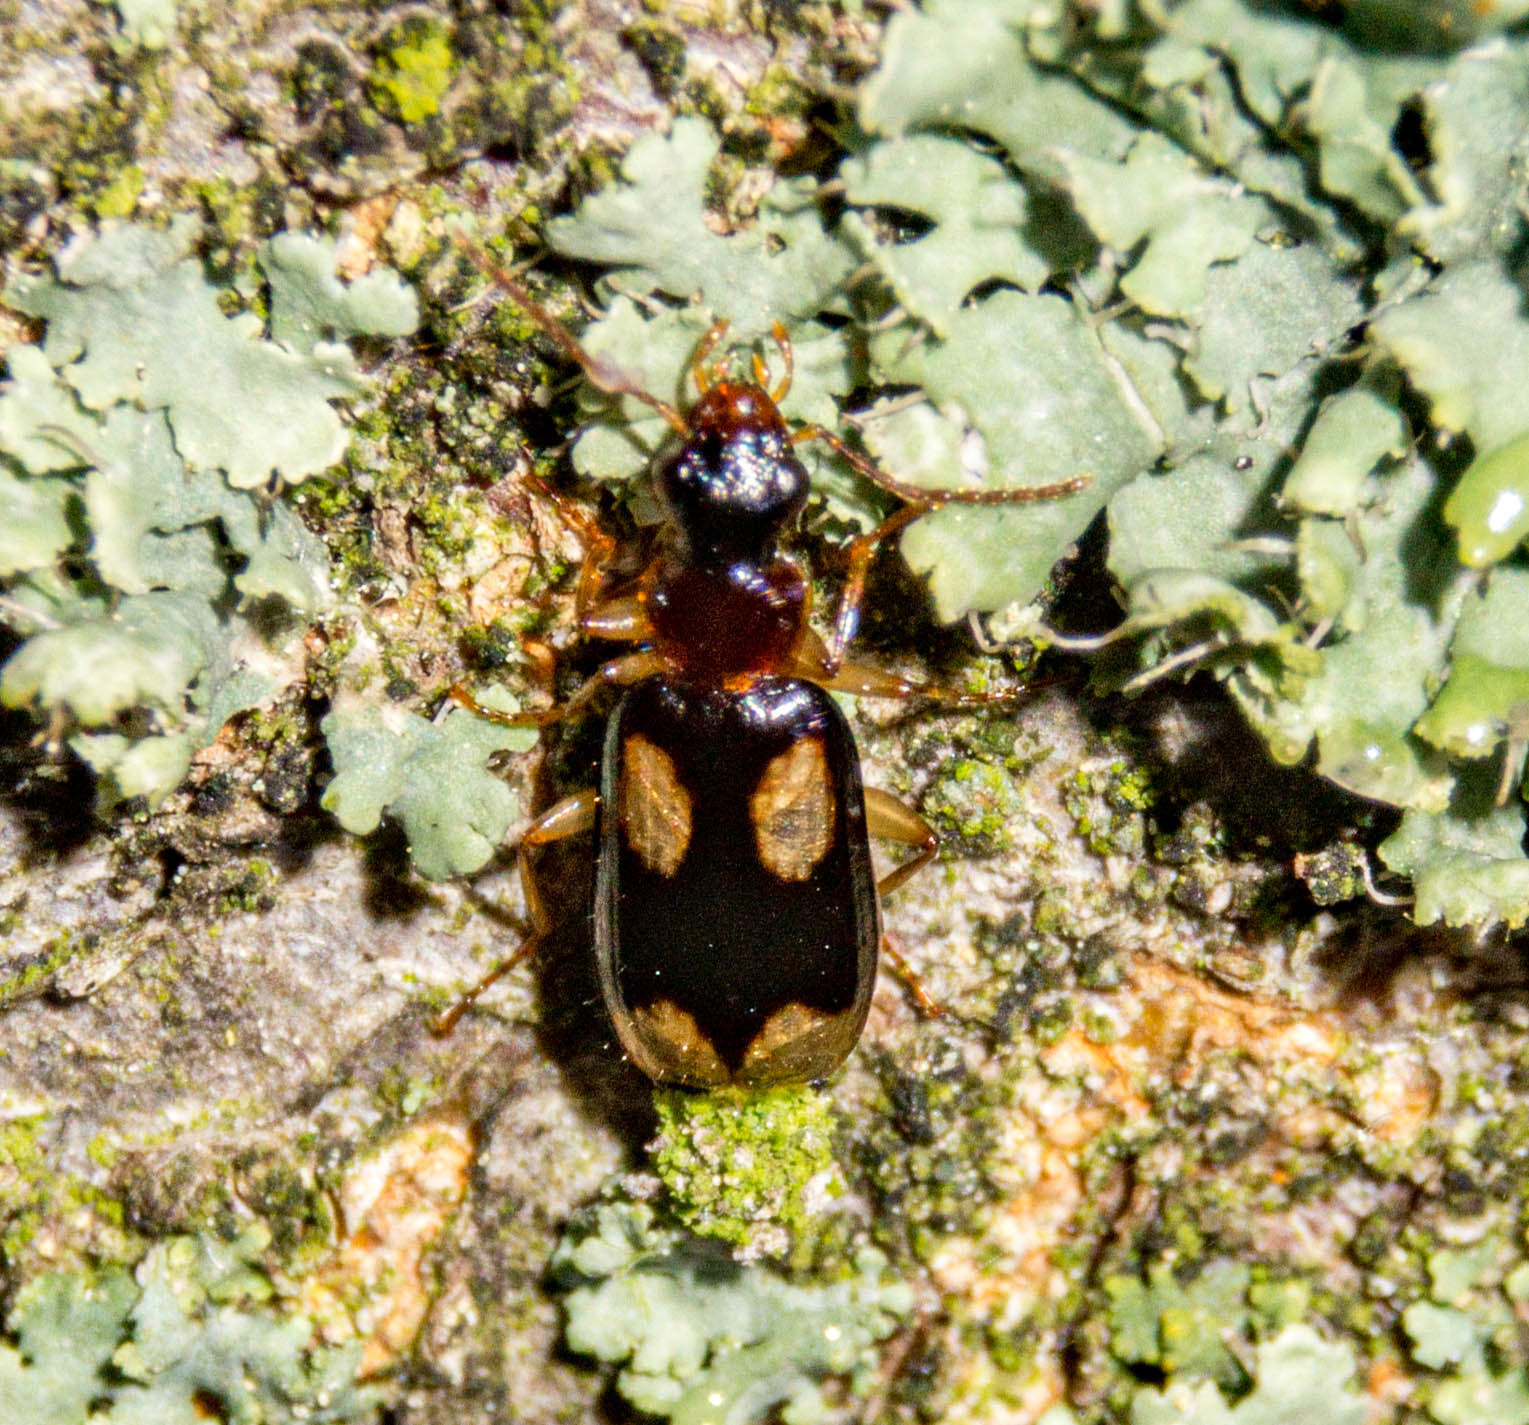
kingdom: Animalia
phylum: Arthropoda
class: Insecta
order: Coleoptera
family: Carabidae
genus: Dromius
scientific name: Dromius quadrimaculatus
